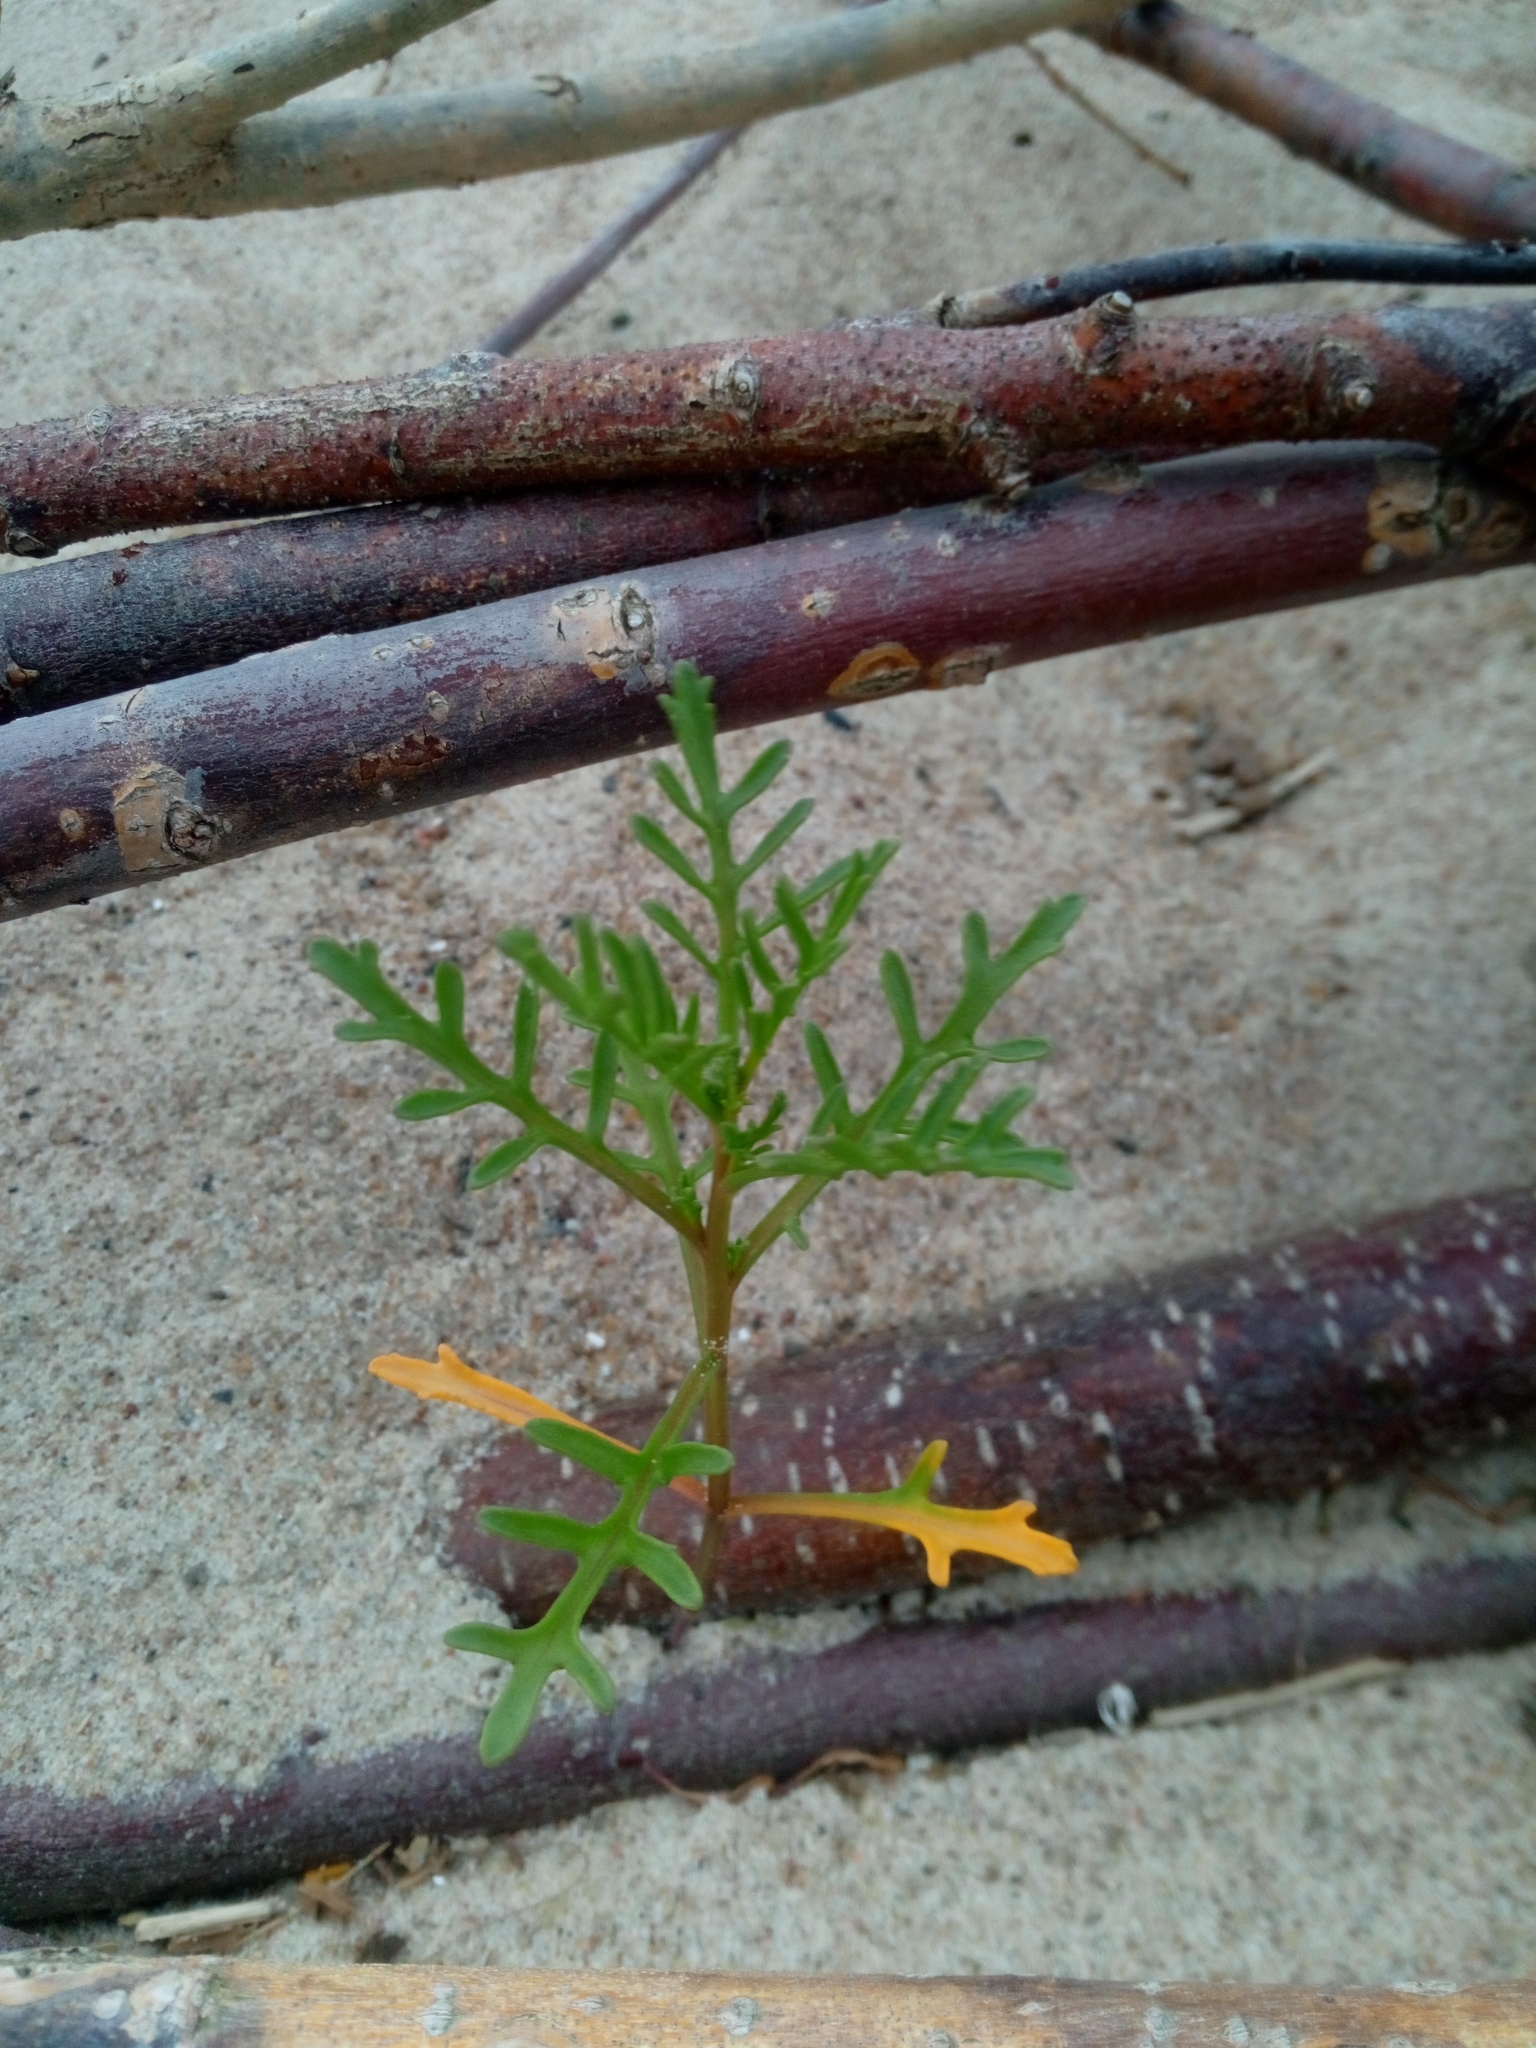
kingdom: Plantae
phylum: Tracheophyta
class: Magnoliopsida
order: Brassicales
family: Brassicaceae
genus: Cakile
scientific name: Cakile maritima
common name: Sea rocket
